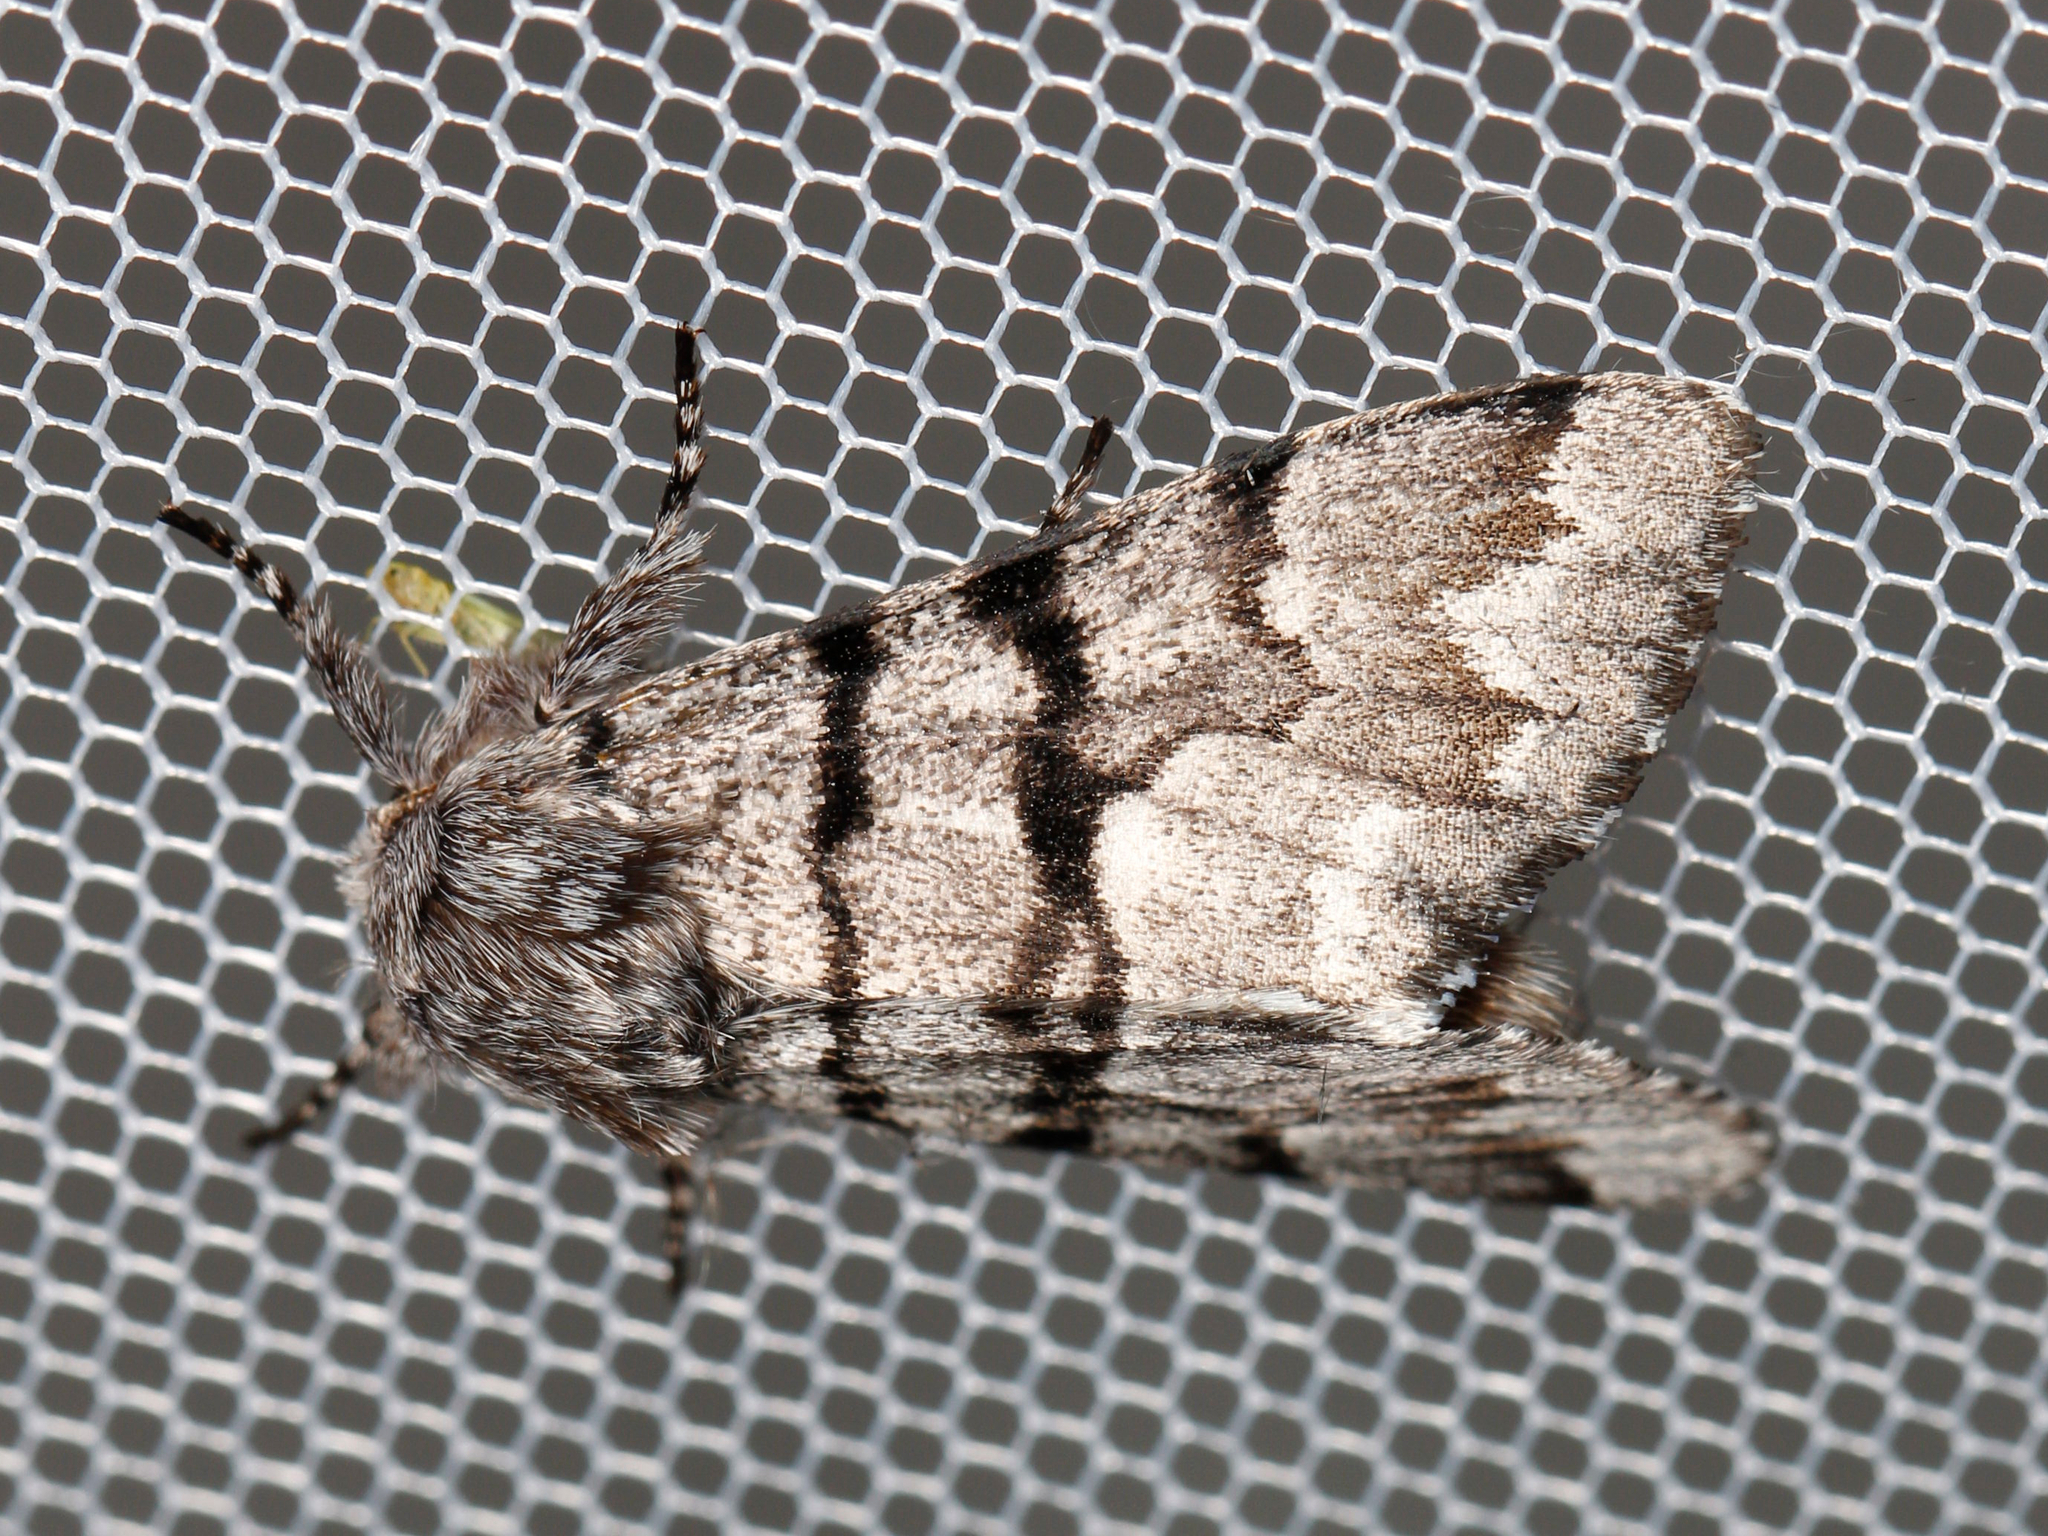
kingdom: Animalia
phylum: Arthropoda
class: Insecta
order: Lepidoptera
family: Noctuidae
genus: Panthea
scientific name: Panthea furcilla
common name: Eastern panthea moth
